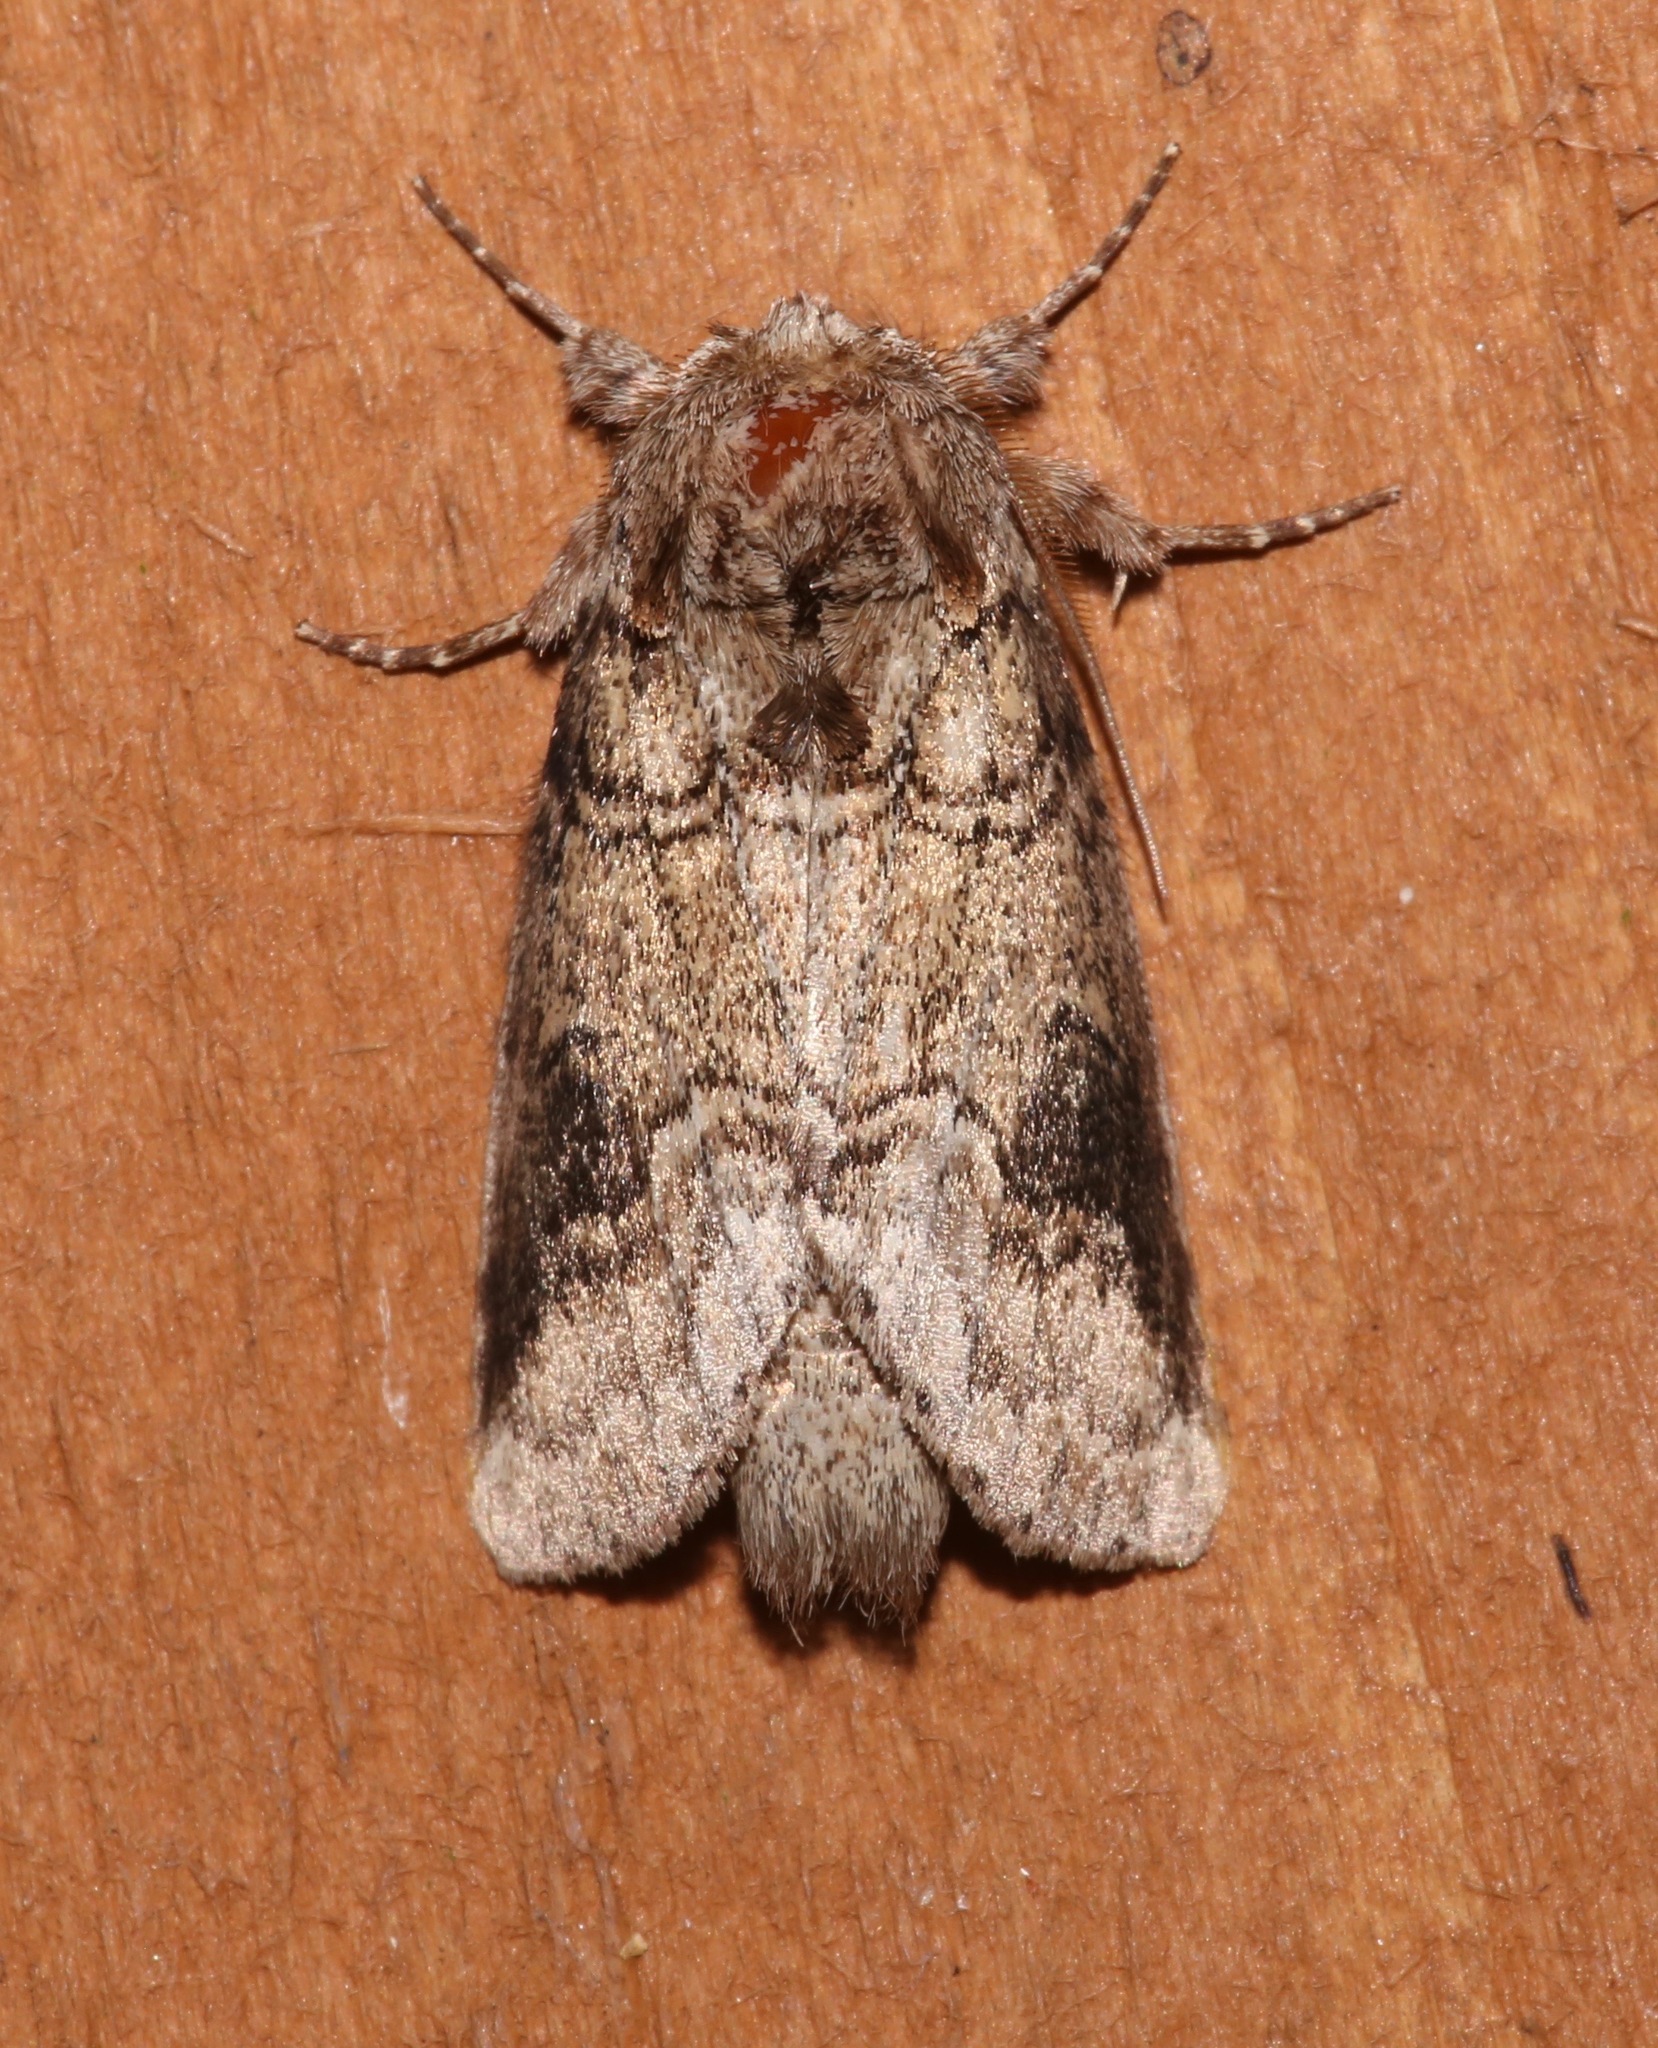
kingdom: Animalia
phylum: Arthropoda
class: Insecta
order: Lepidoptera
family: Notodontidae
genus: Lochmaeus
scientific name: Lochmaeus bilineata
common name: Double-lined prominent
